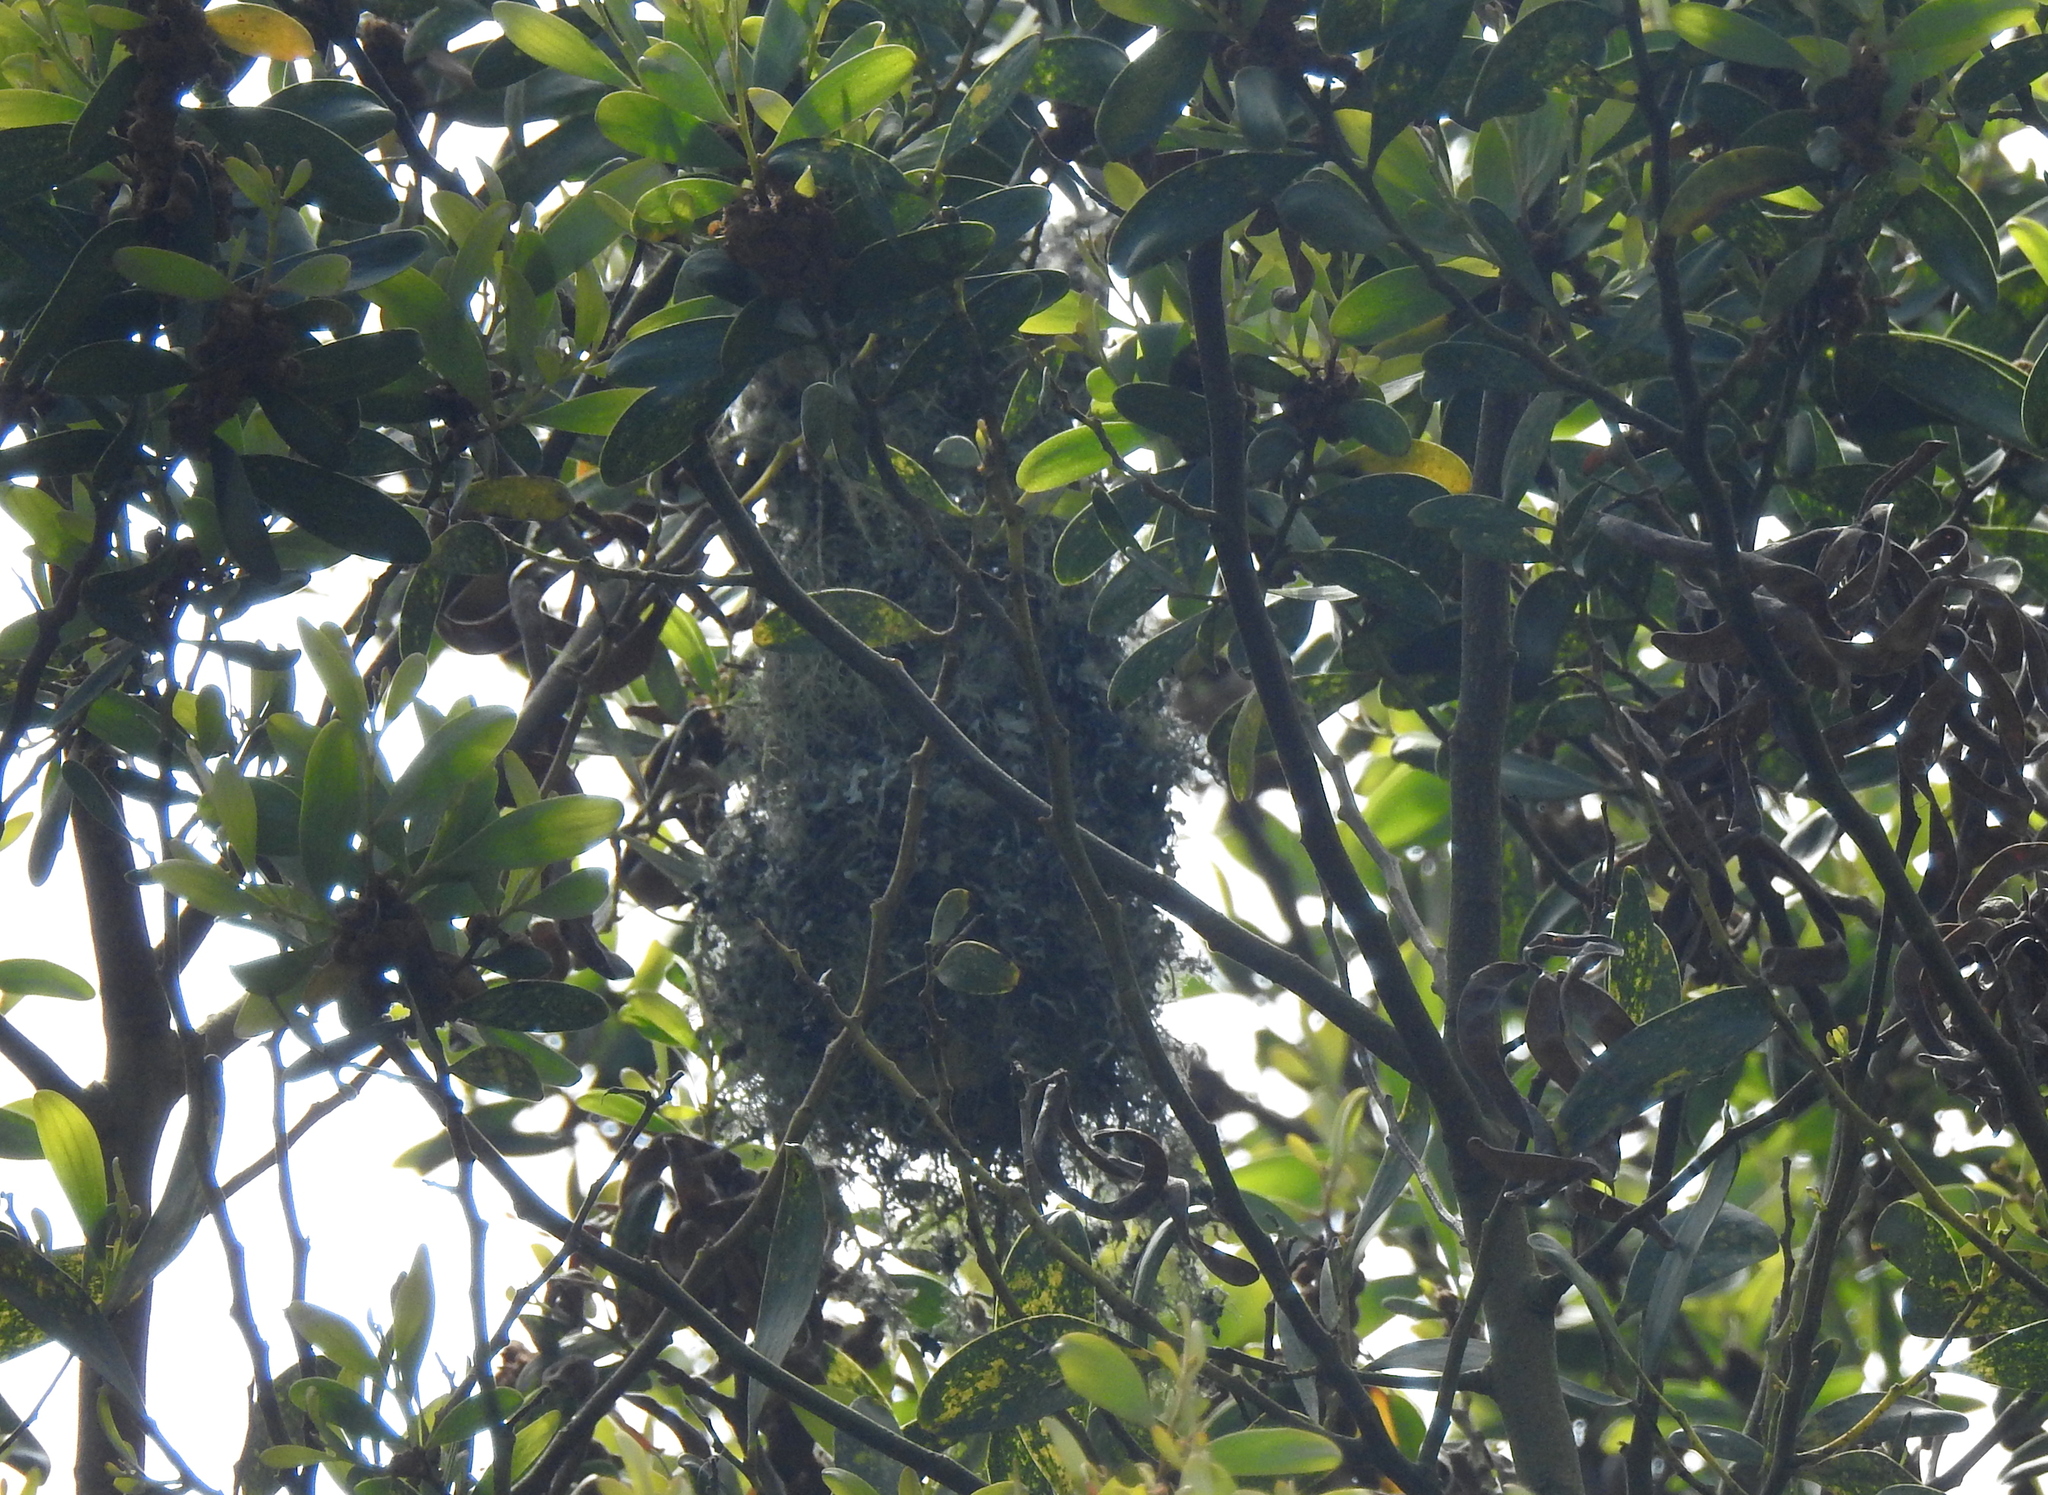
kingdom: Animalia
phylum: Chordata
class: Aves
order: Passeriformes
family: Aegithalidae
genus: Psaltriparus
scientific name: Psaltriparus minimus
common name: American bushtit
